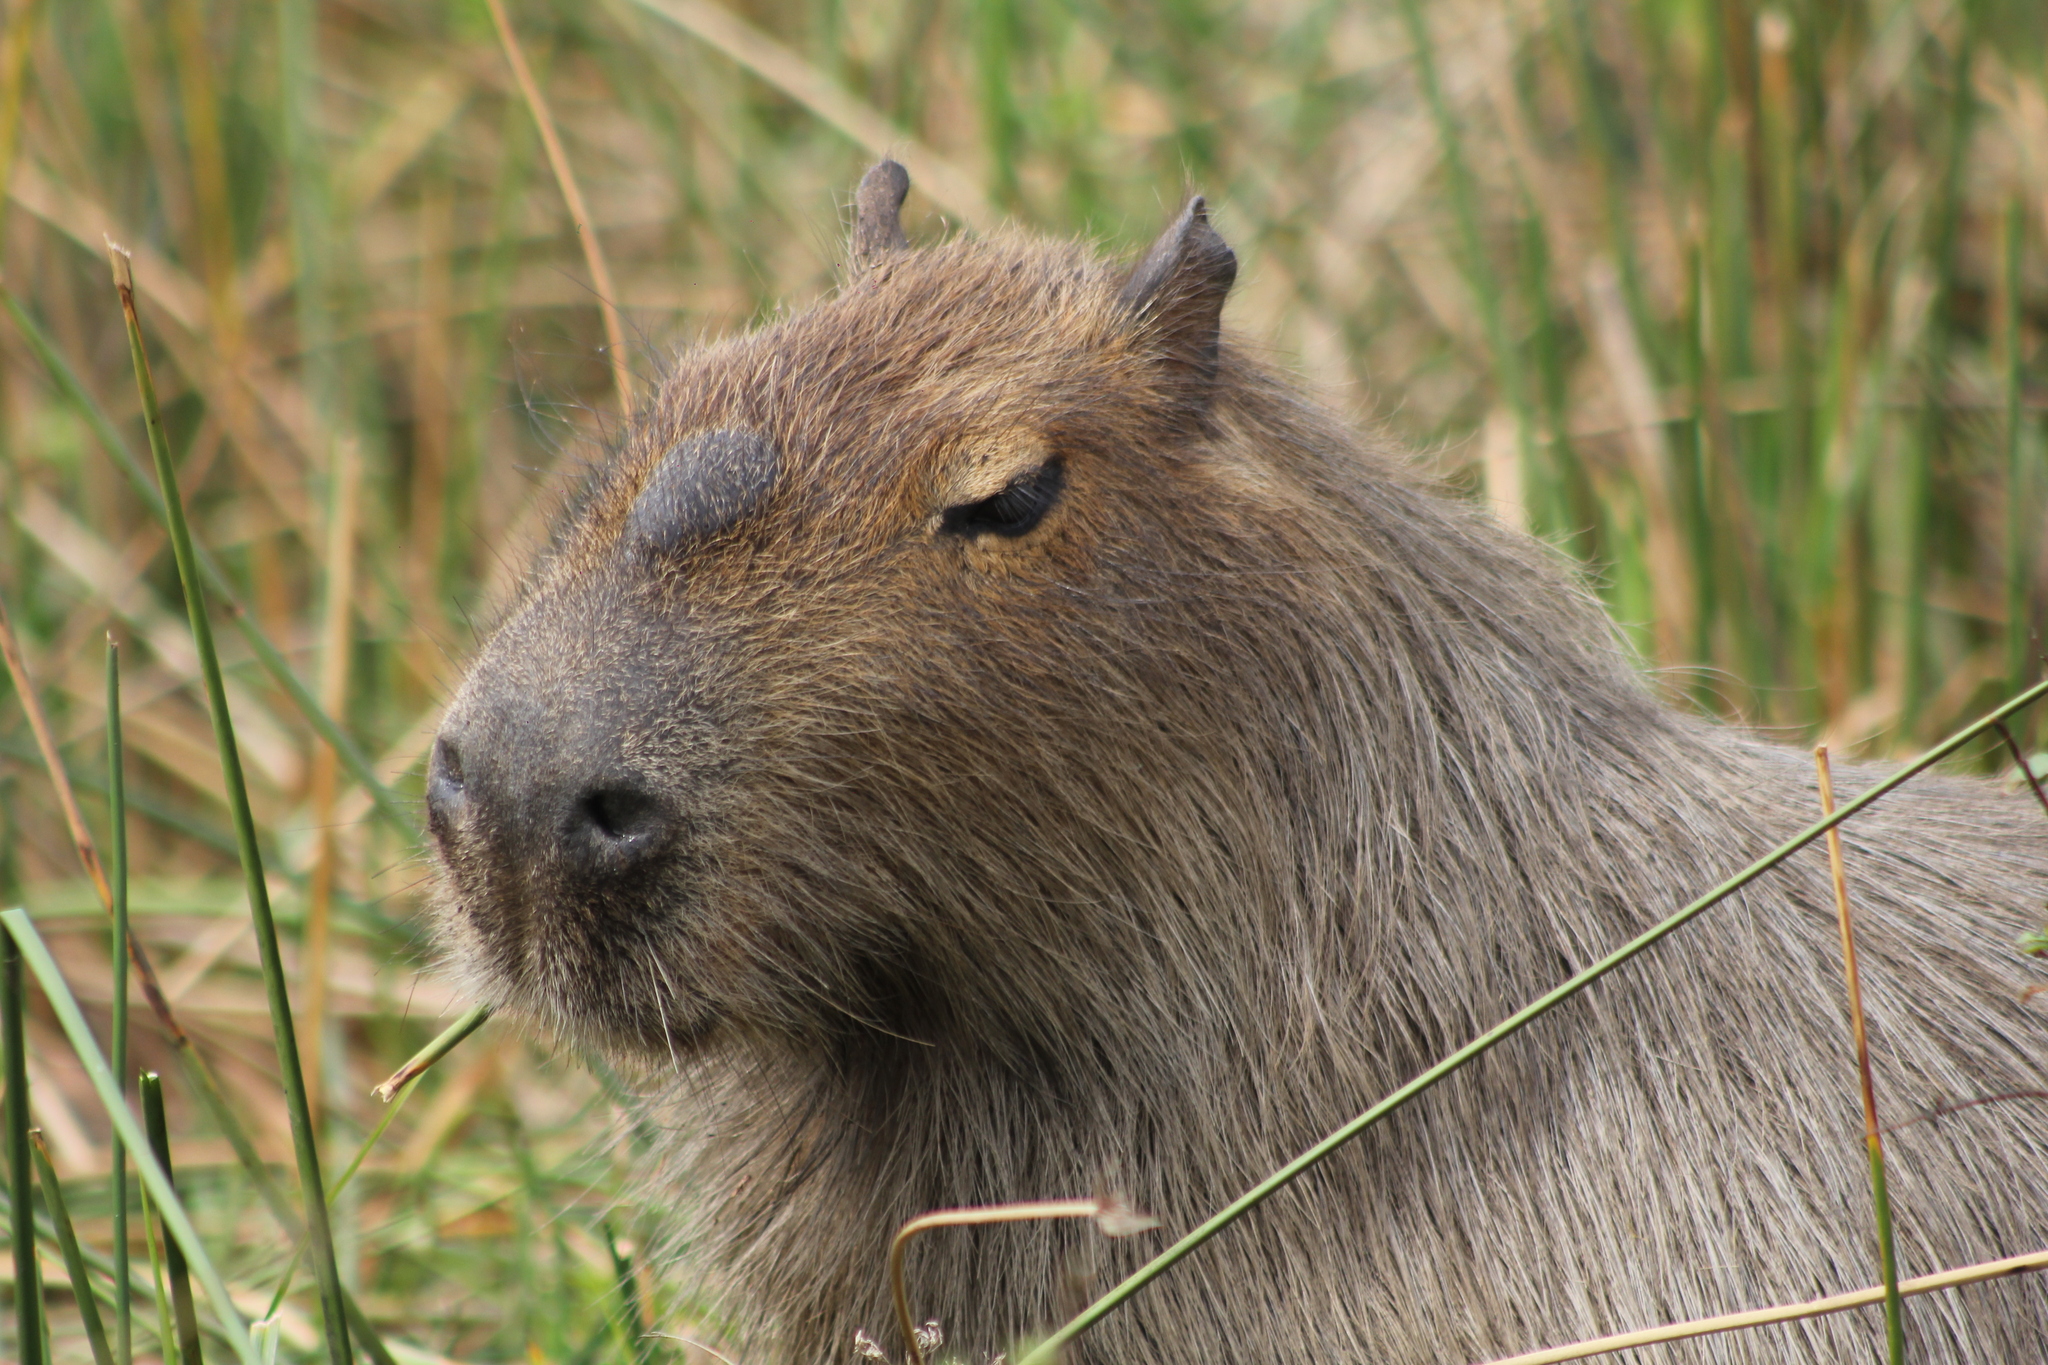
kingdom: Animalia
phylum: Chordata
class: Mammalia
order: Rodentia
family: Caviidae
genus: Hydrochoerus
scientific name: Hydrochoerus hydrochaeris
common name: Capybara
